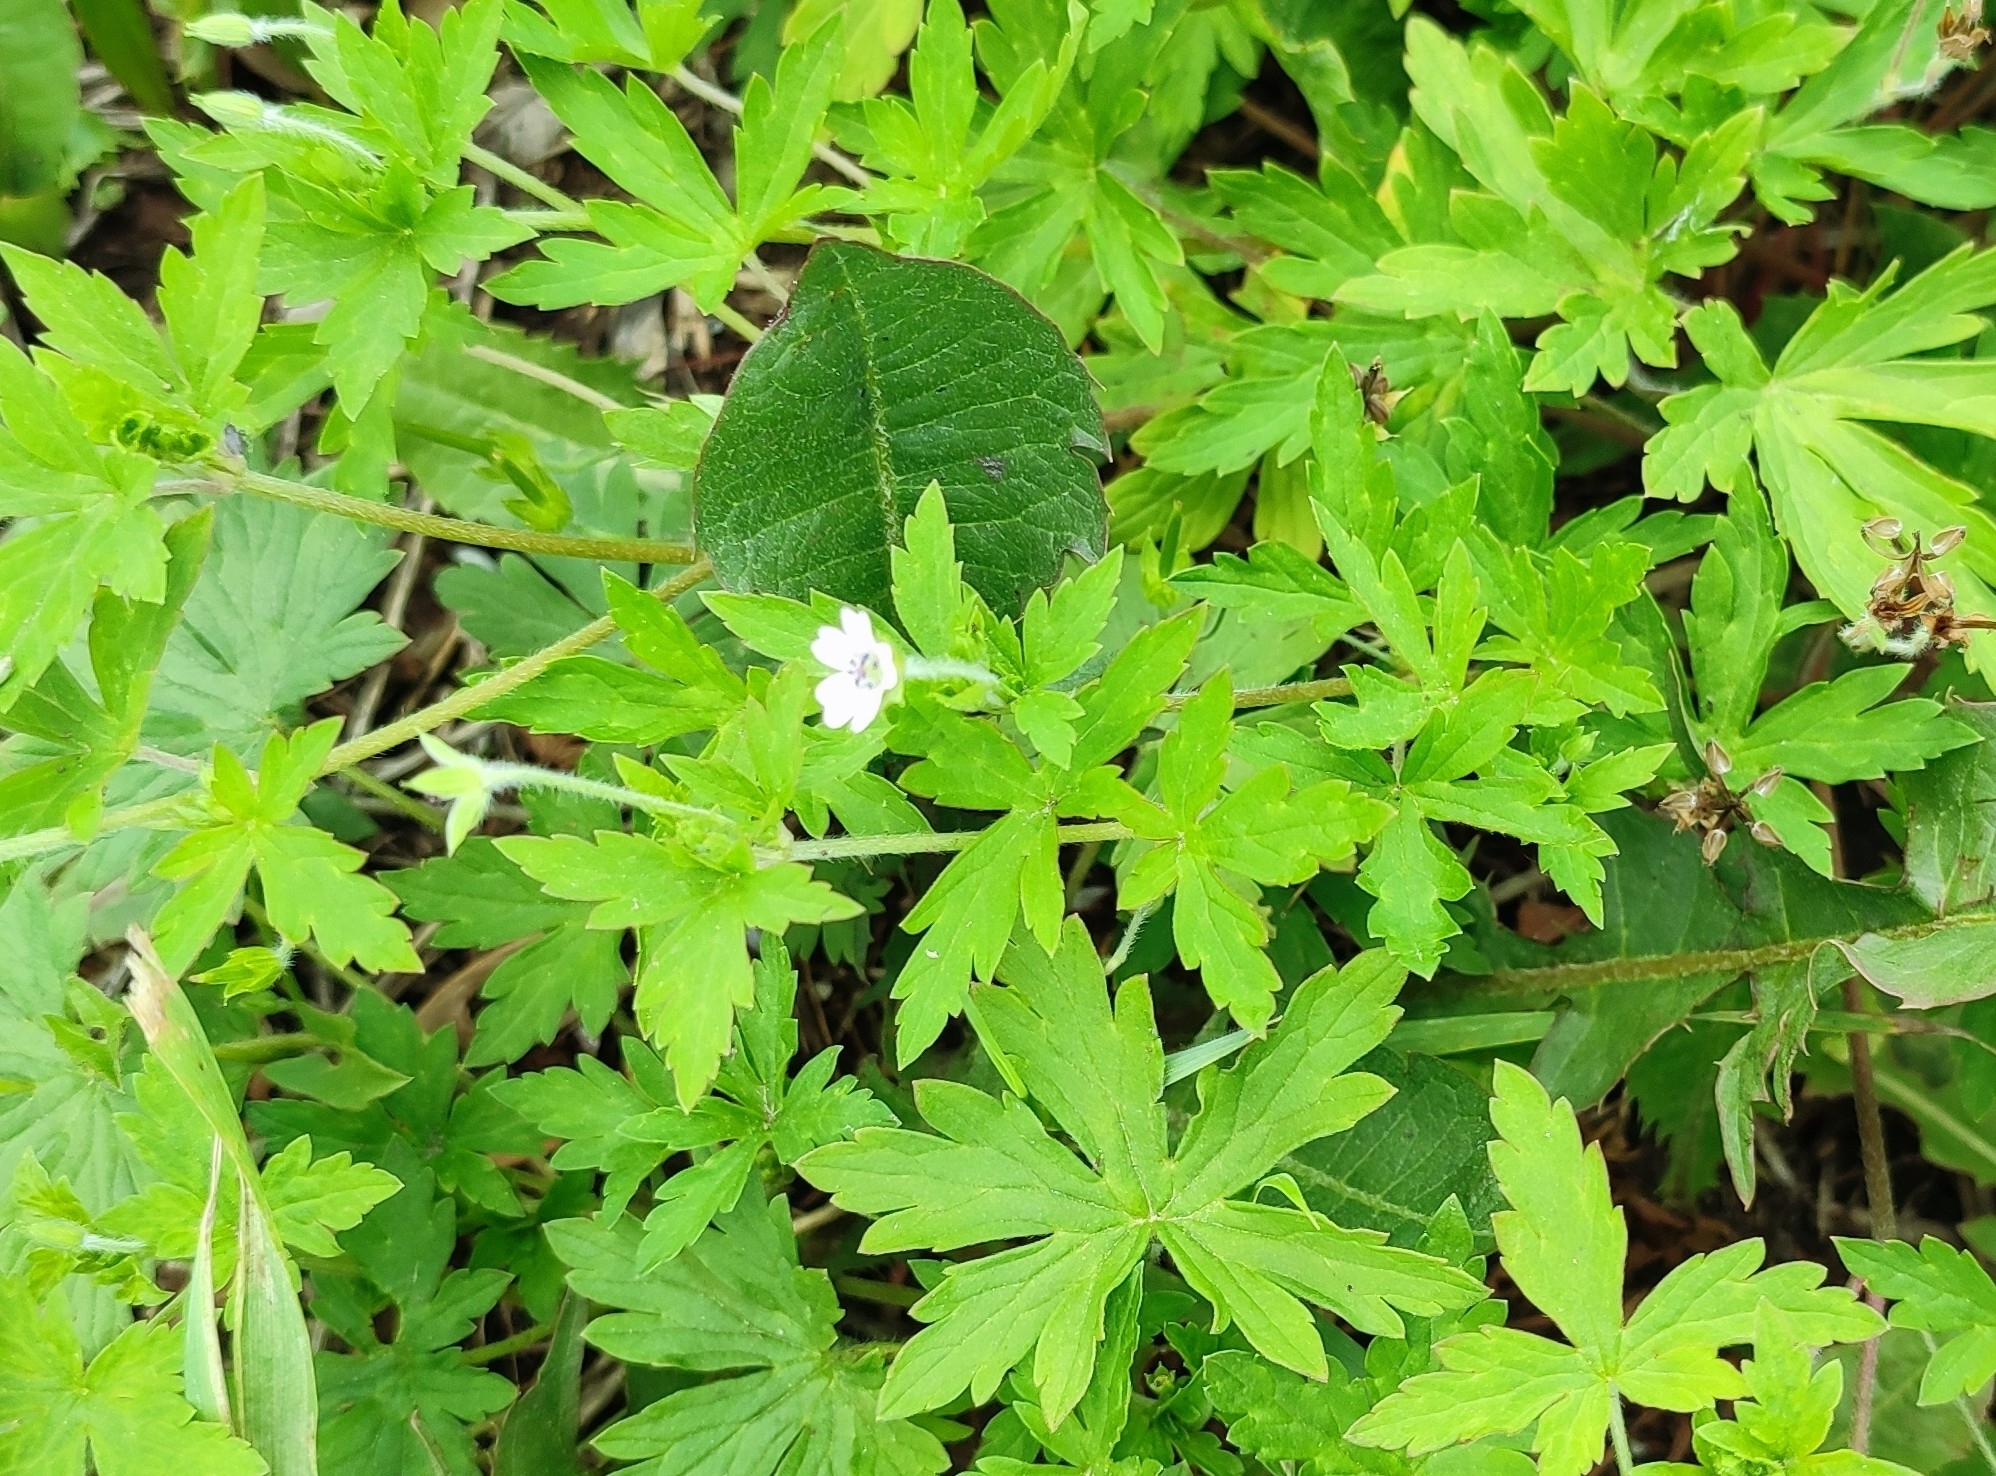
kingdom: Plantae
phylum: Tracheophyta
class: Magnoliopsida
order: Geraniales
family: Geraniaceae
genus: Geranium
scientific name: Geranium sibiricum
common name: Siberian crane's-bill
